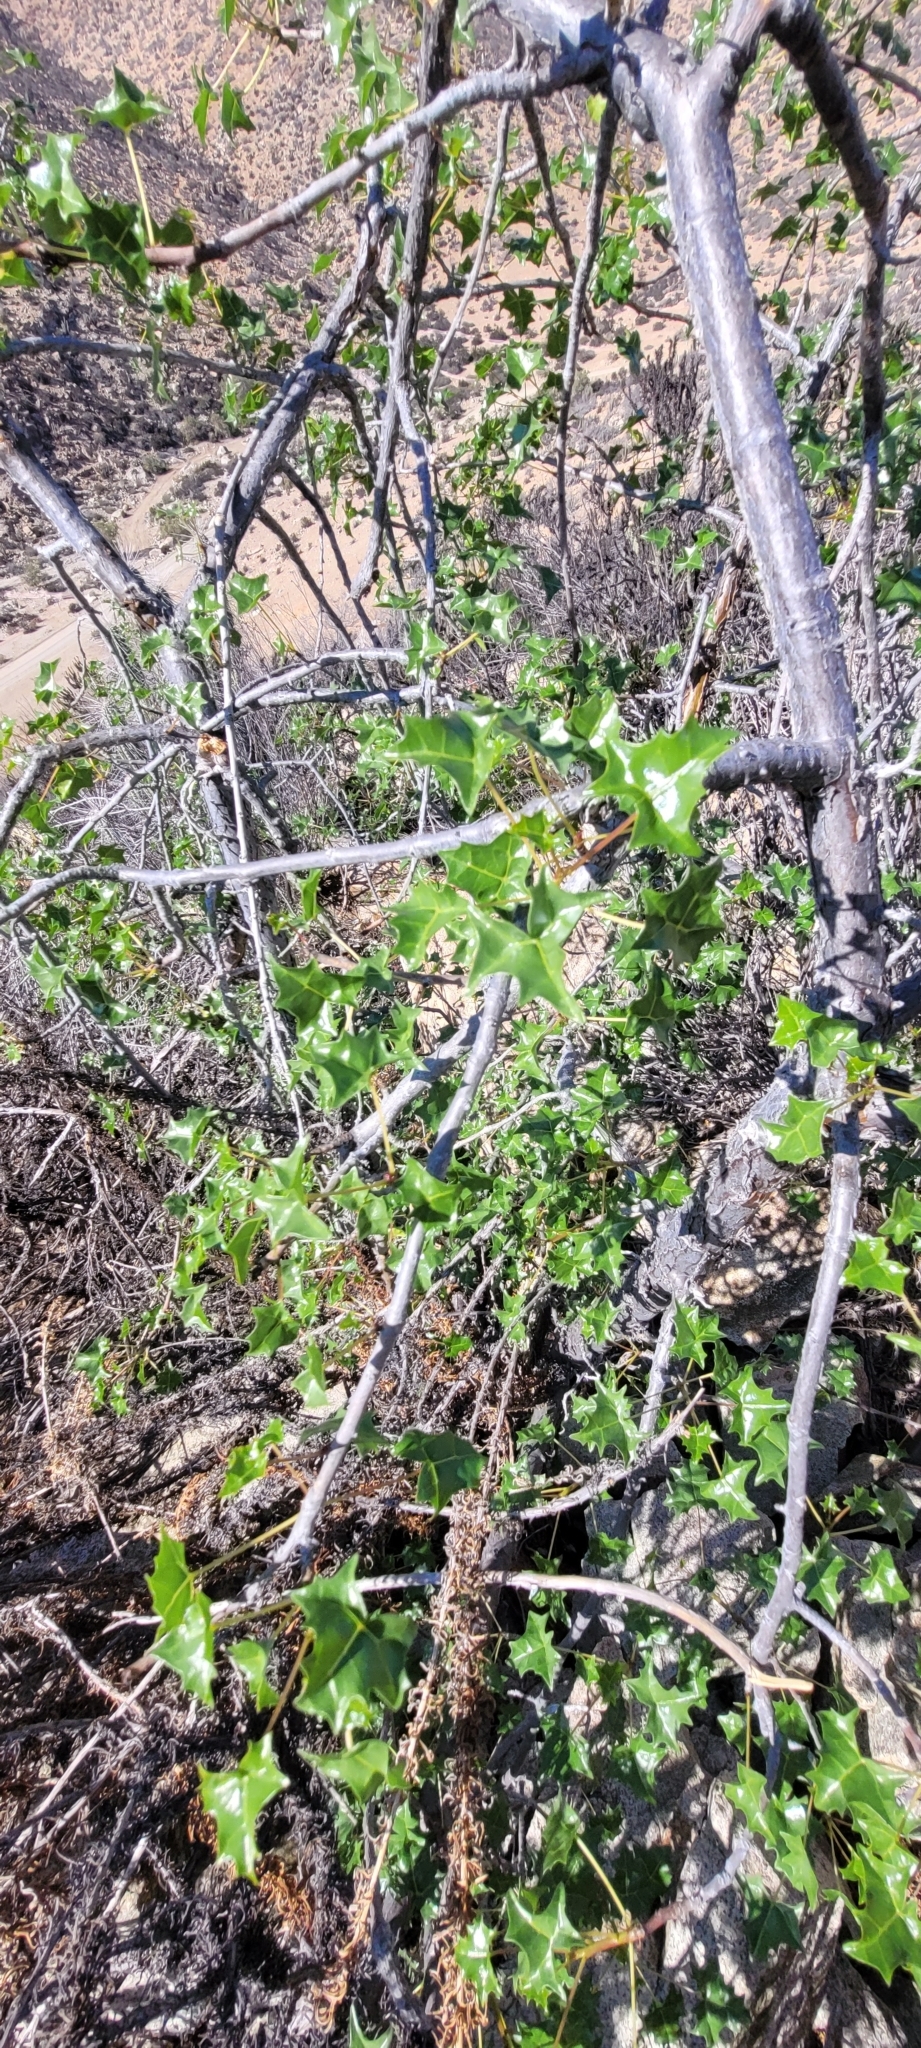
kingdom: Plantae
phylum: Tracheophyta
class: Magnoliopsida
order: Brassicales
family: Caricaceae
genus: Vasconcellea
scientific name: Vasconcellea chilensis
